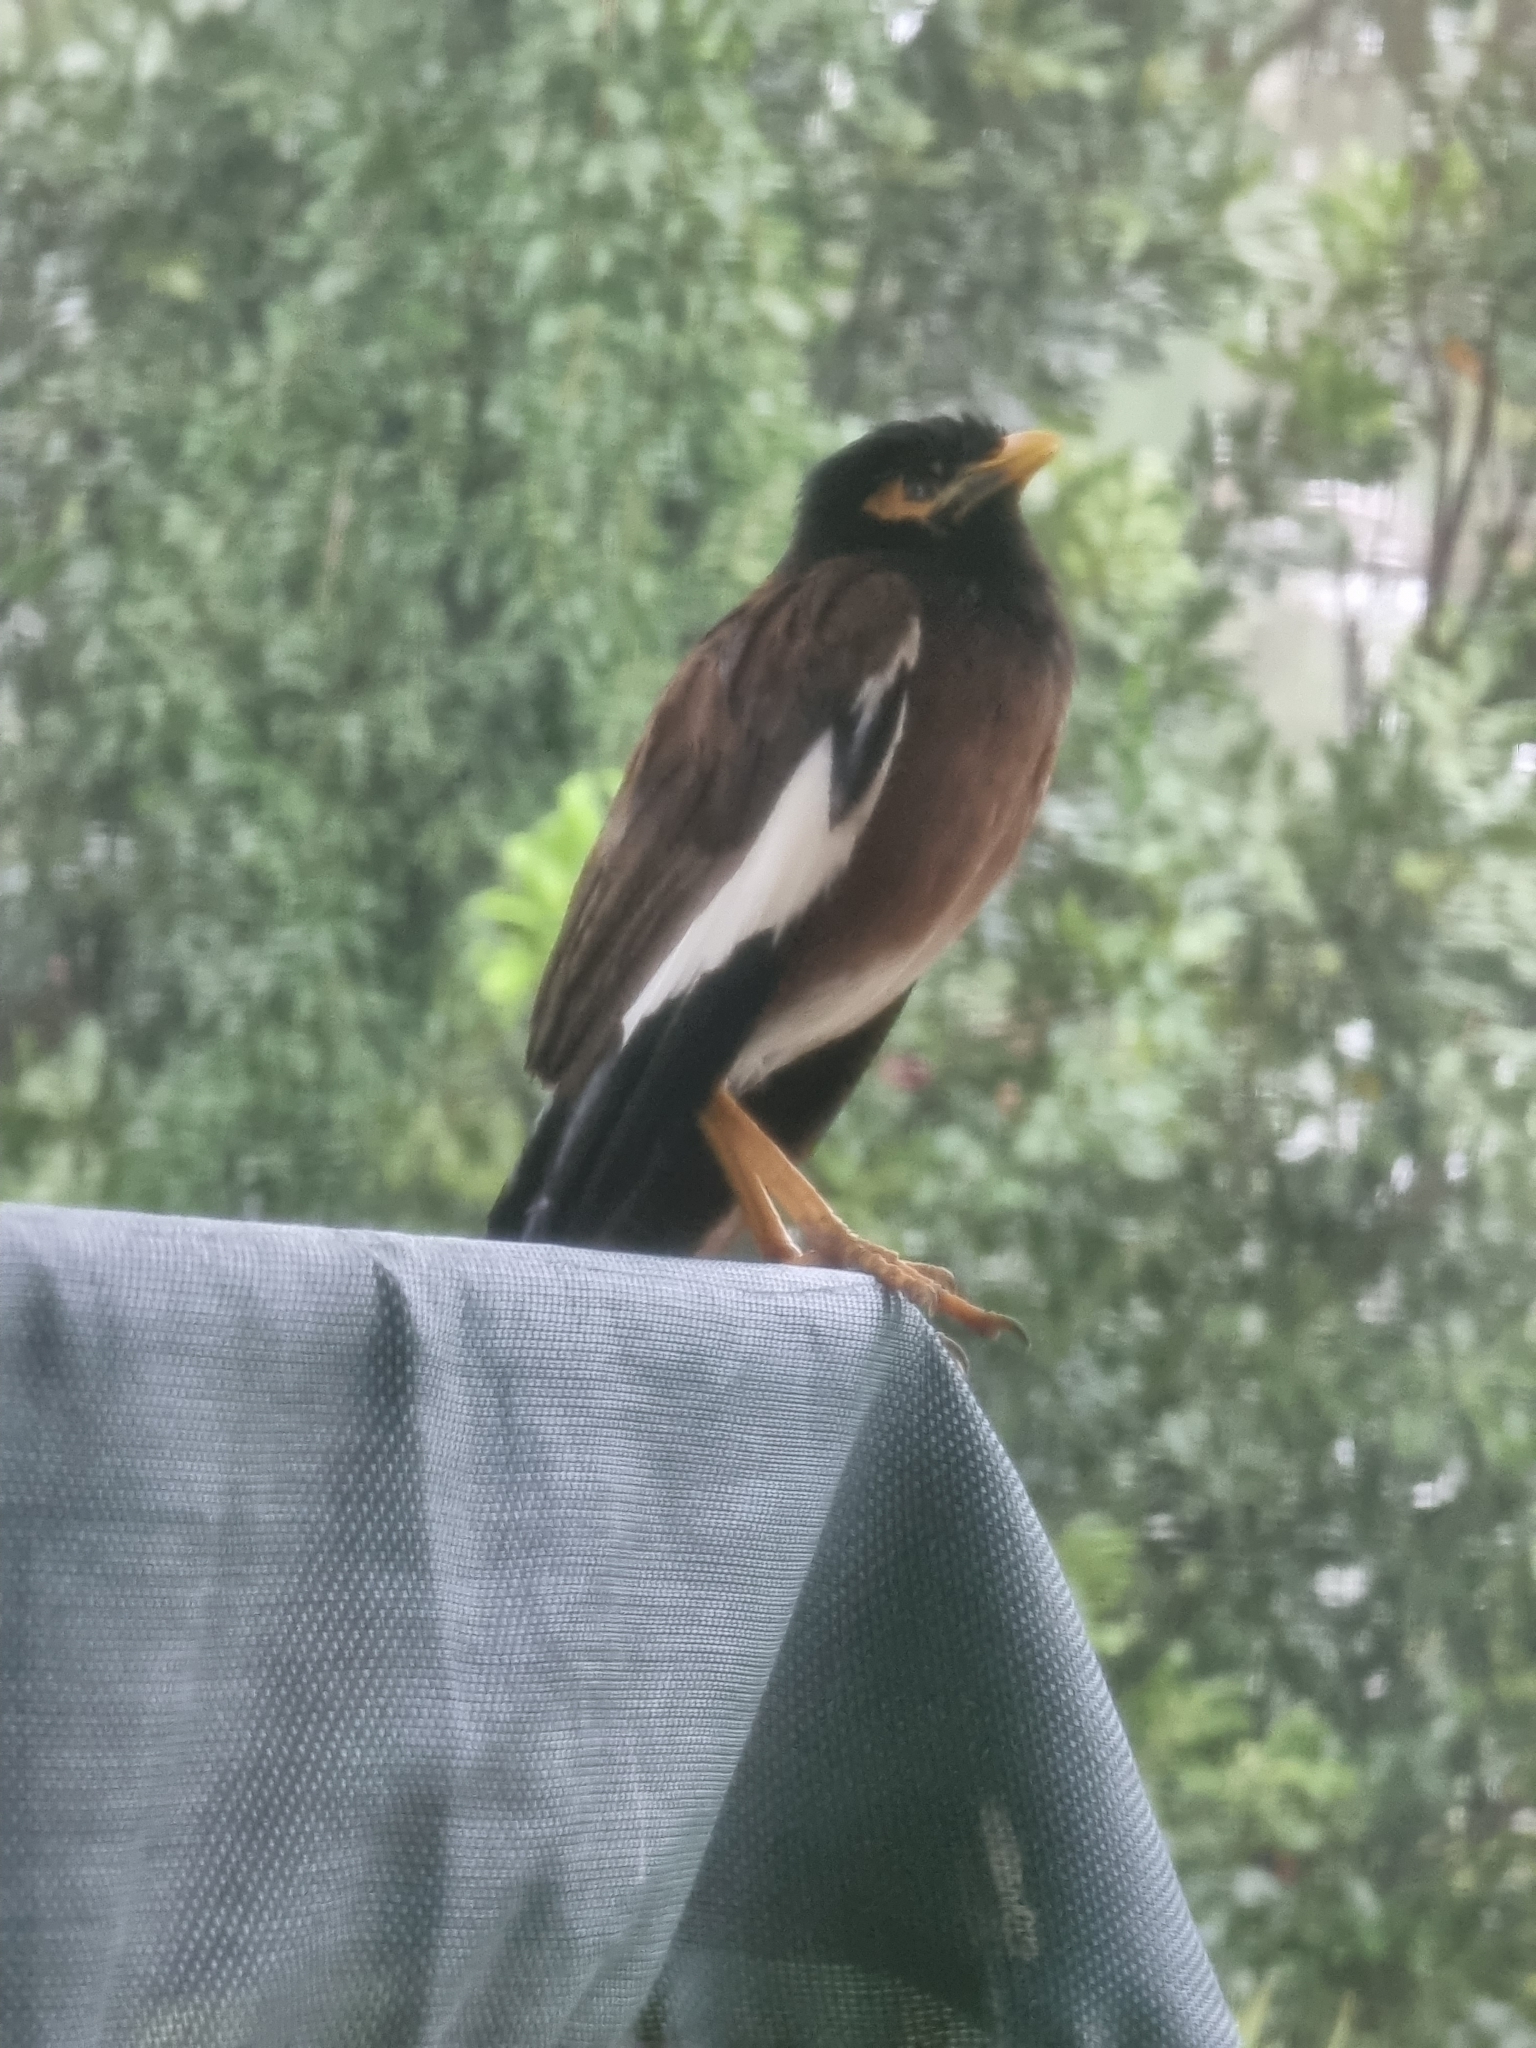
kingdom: Animalia
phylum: Chordata
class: Aves
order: Passeriformes
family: Sturnidae
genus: Acridotheres
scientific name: Acridotheres tristis
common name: Common myna
